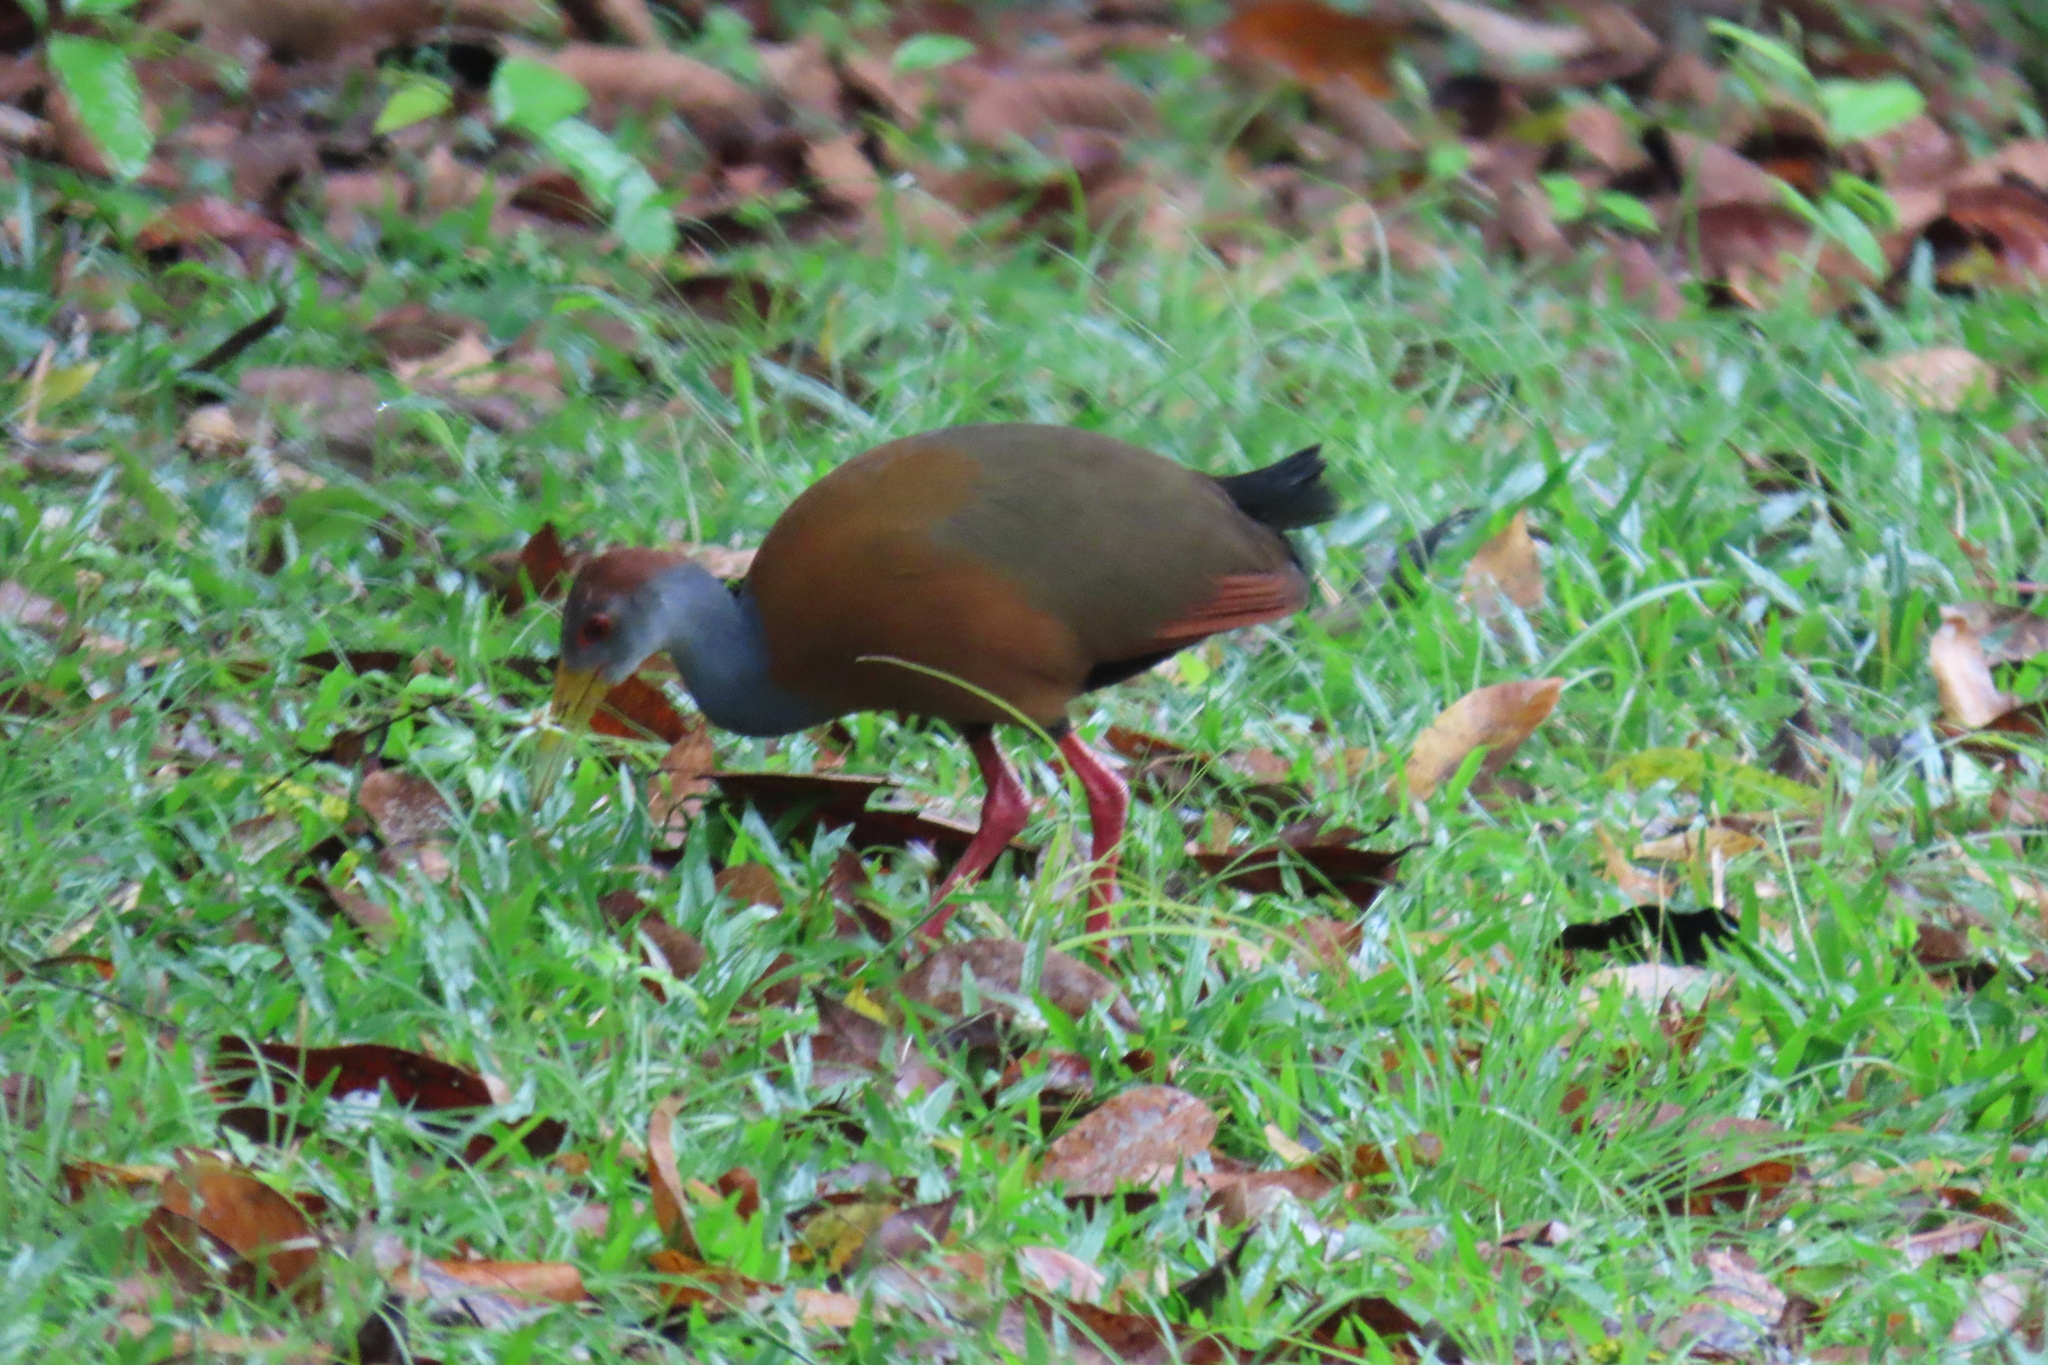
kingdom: Animalia
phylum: Chordata
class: Aves
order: Gruiformes
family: Rallidae
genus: Aramides
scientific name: Aramides albiventris
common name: Russet-naped wood-rail
